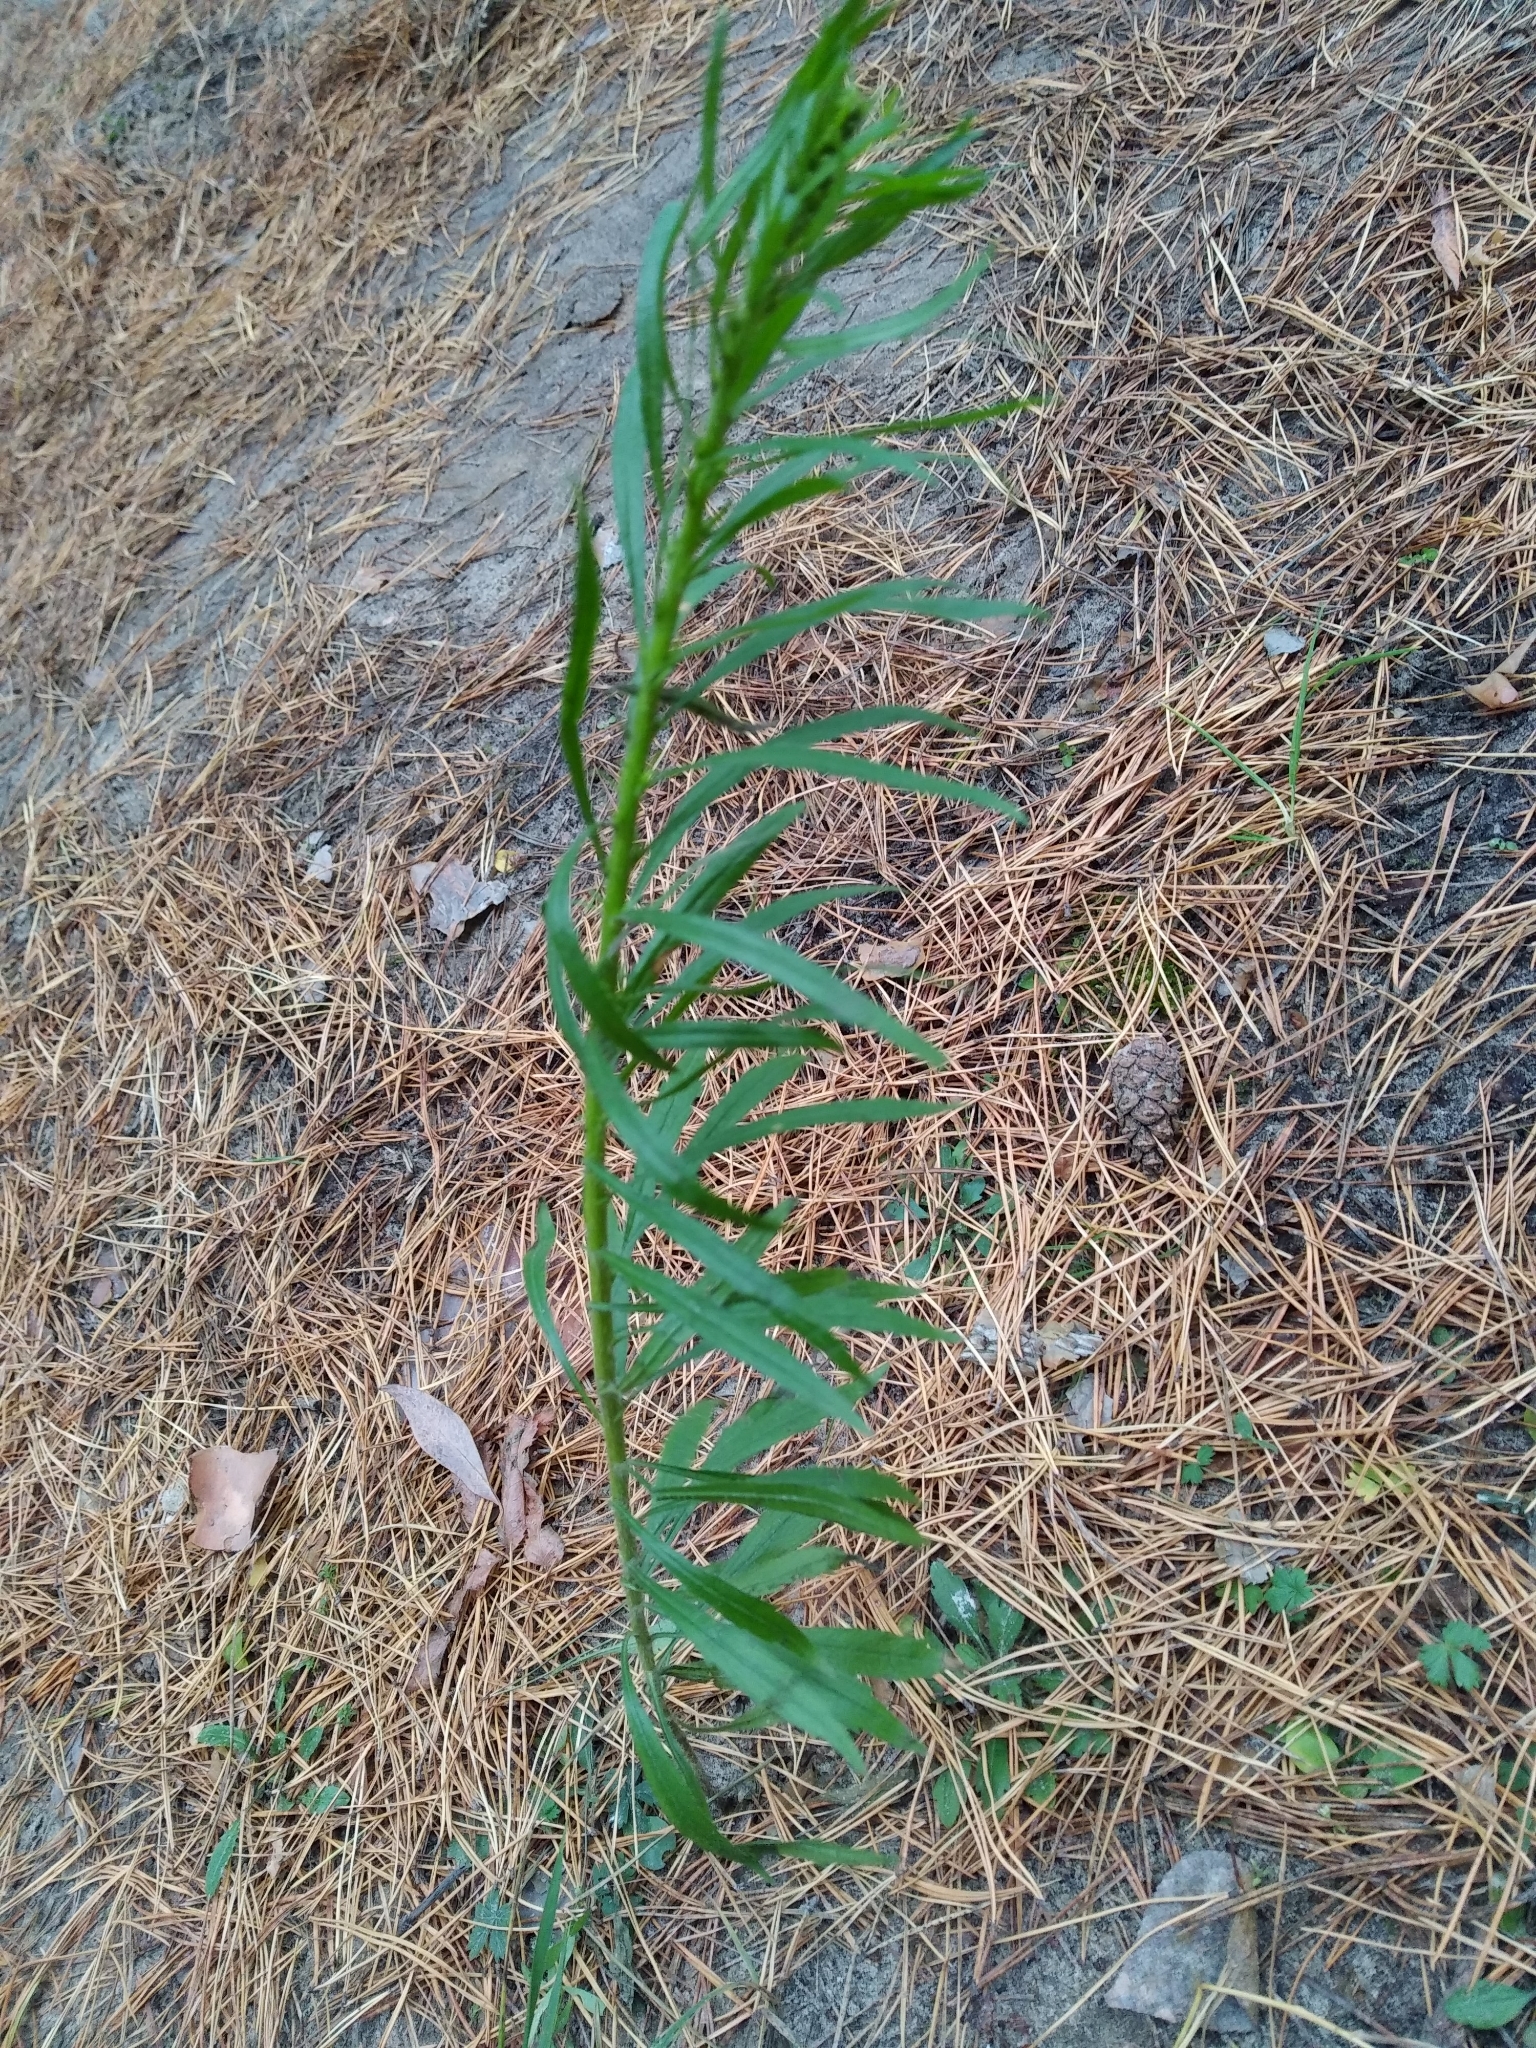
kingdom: Plantae
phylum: Tracheophyta
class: Magnoliopsida
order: Asterales
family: Asteraceae
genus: Erigeron
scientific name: Erigeron canadensis
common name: Canadian fleabane
